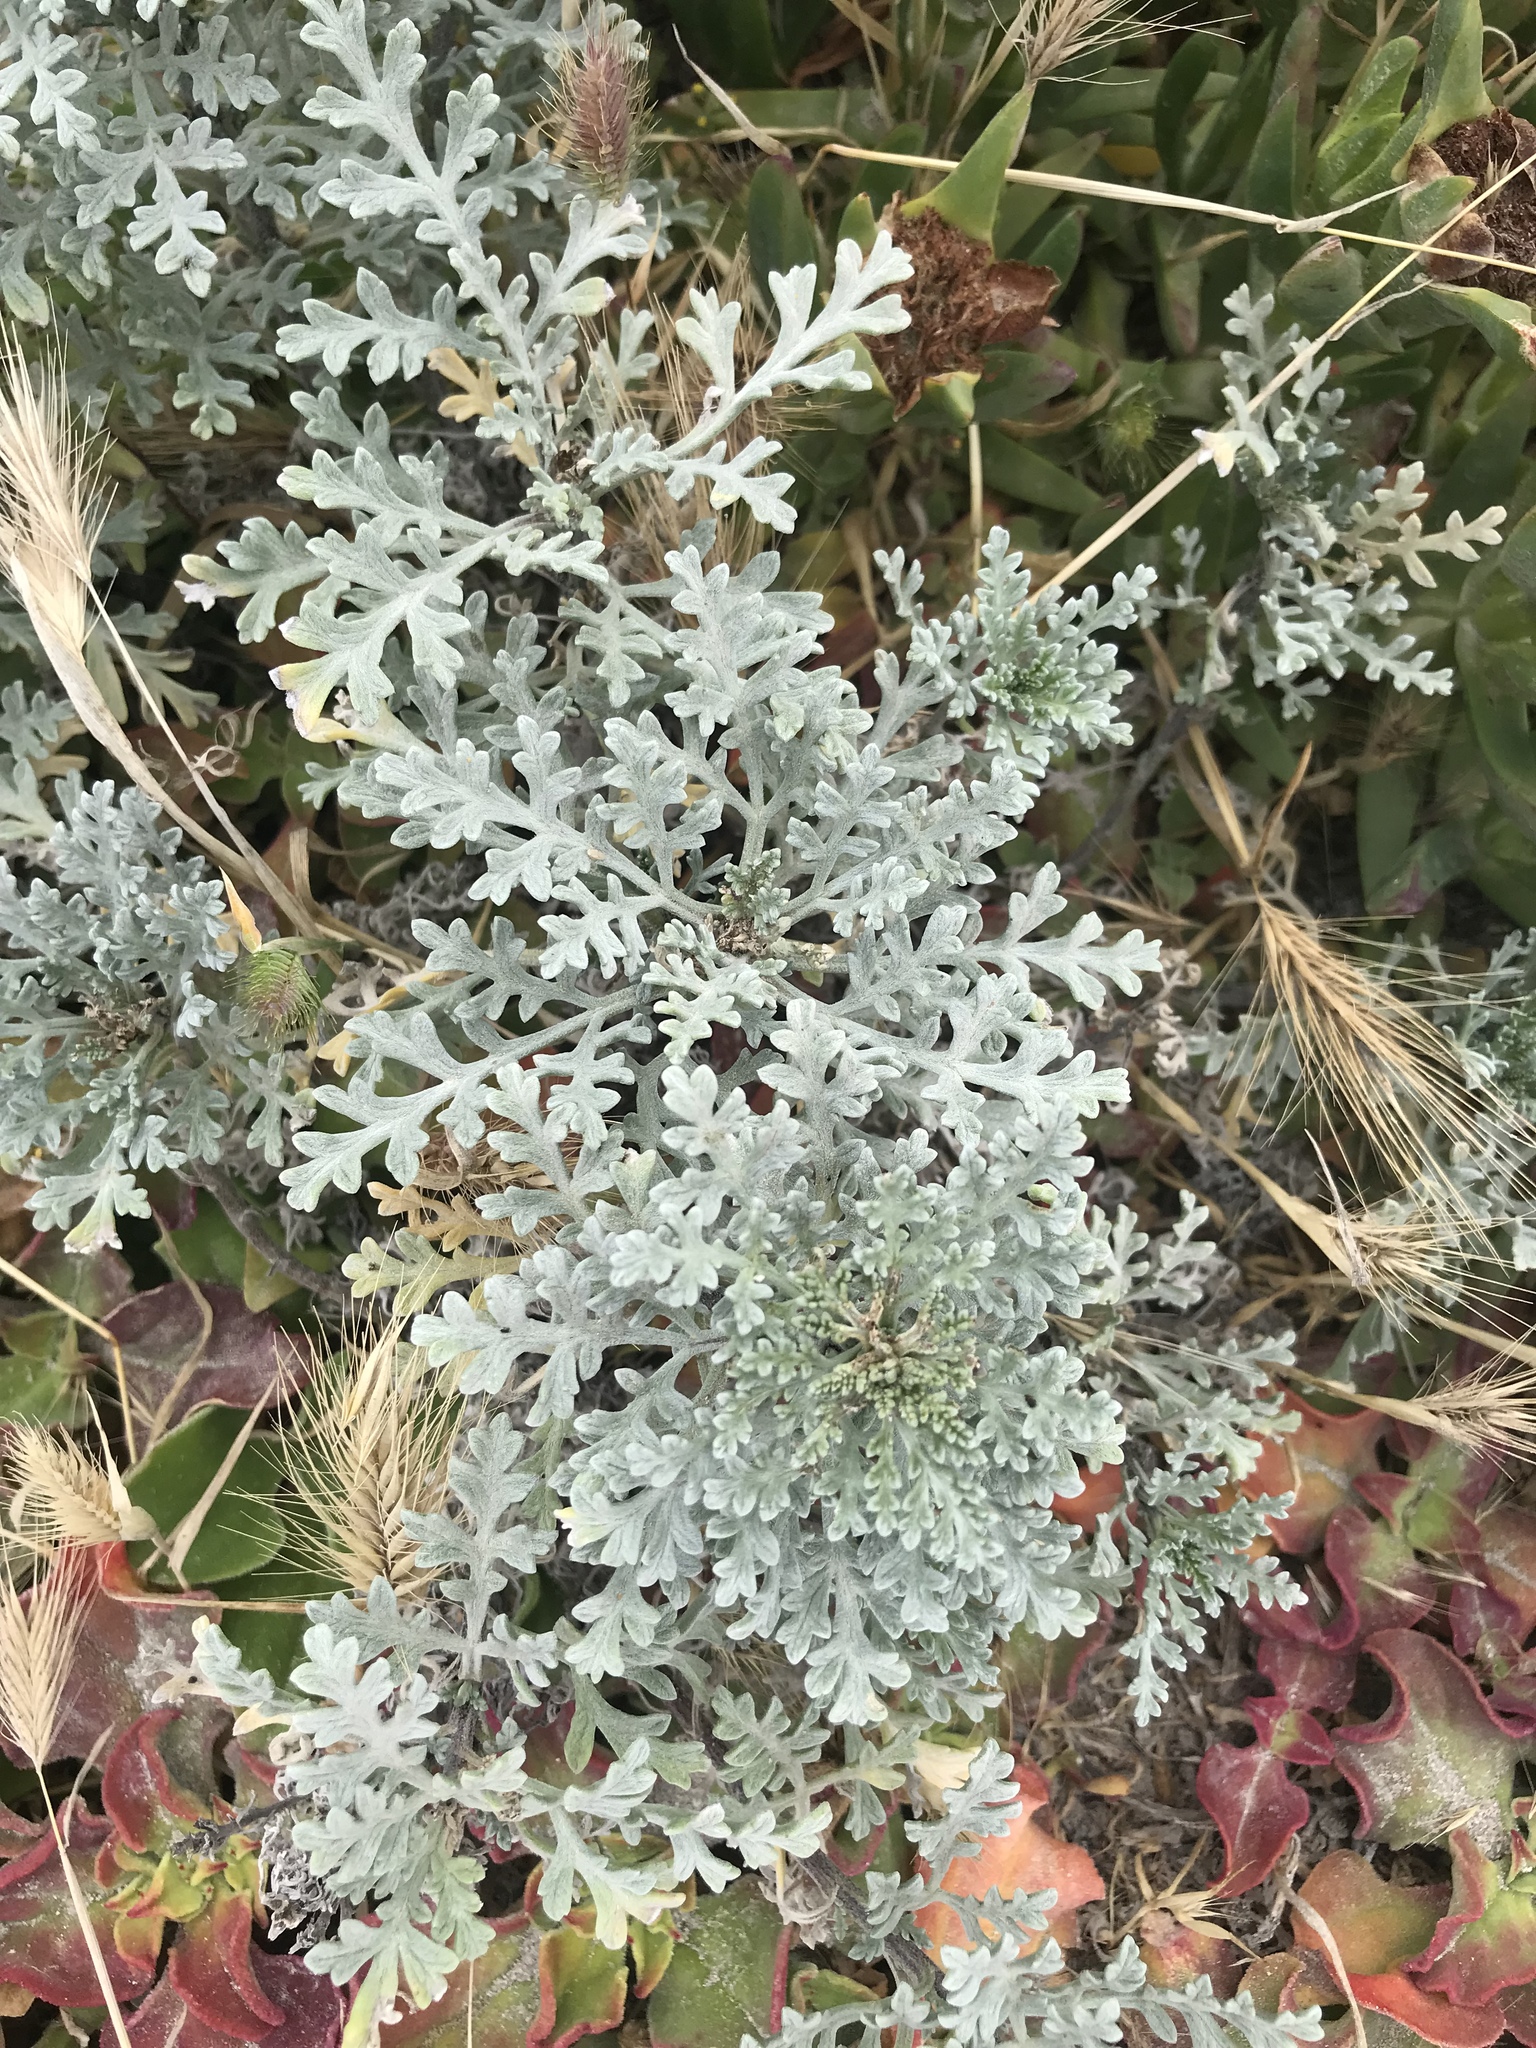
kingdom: Plantae
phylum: Tracheophyta
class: Magnoliopsida
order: Asterales
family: Asteraceae
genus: Ambrosia
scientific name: Ambrosia chamissonis
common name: Beachbur
